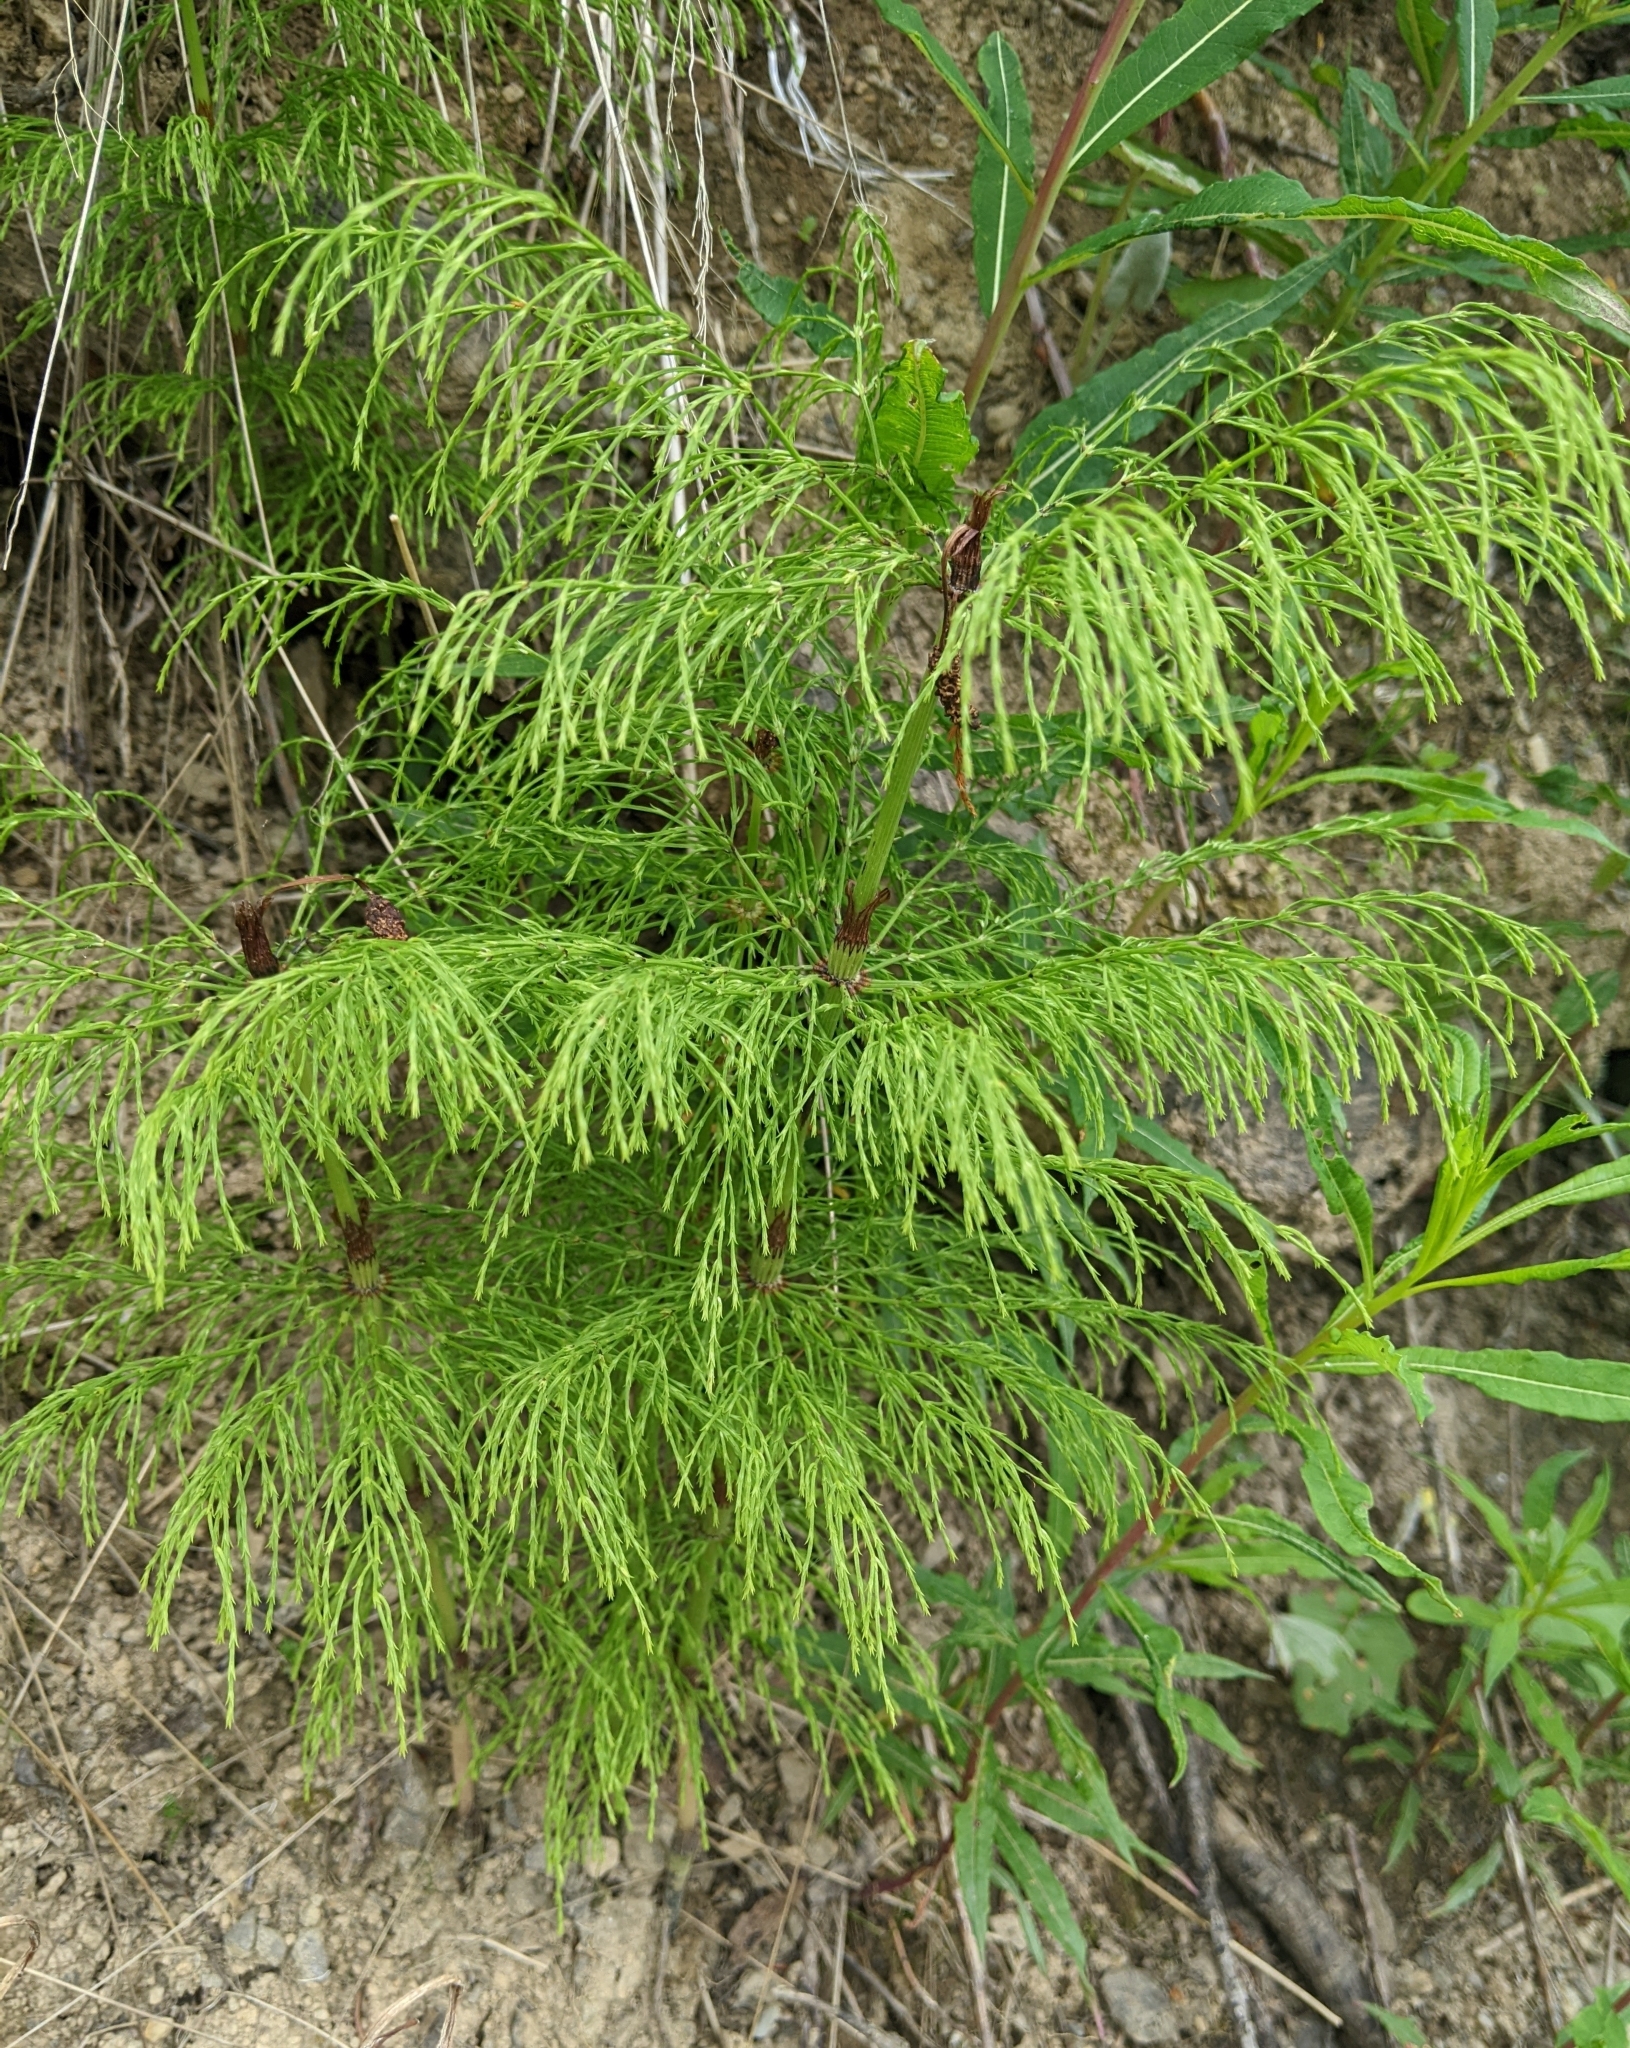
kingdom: Plantae
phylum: Tracheophyta
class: Polypodiopsida
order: Equisetales
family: Equisetaceae
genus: Equisetum
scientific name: Equisetum sylvaticum
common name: Wood horsetail
